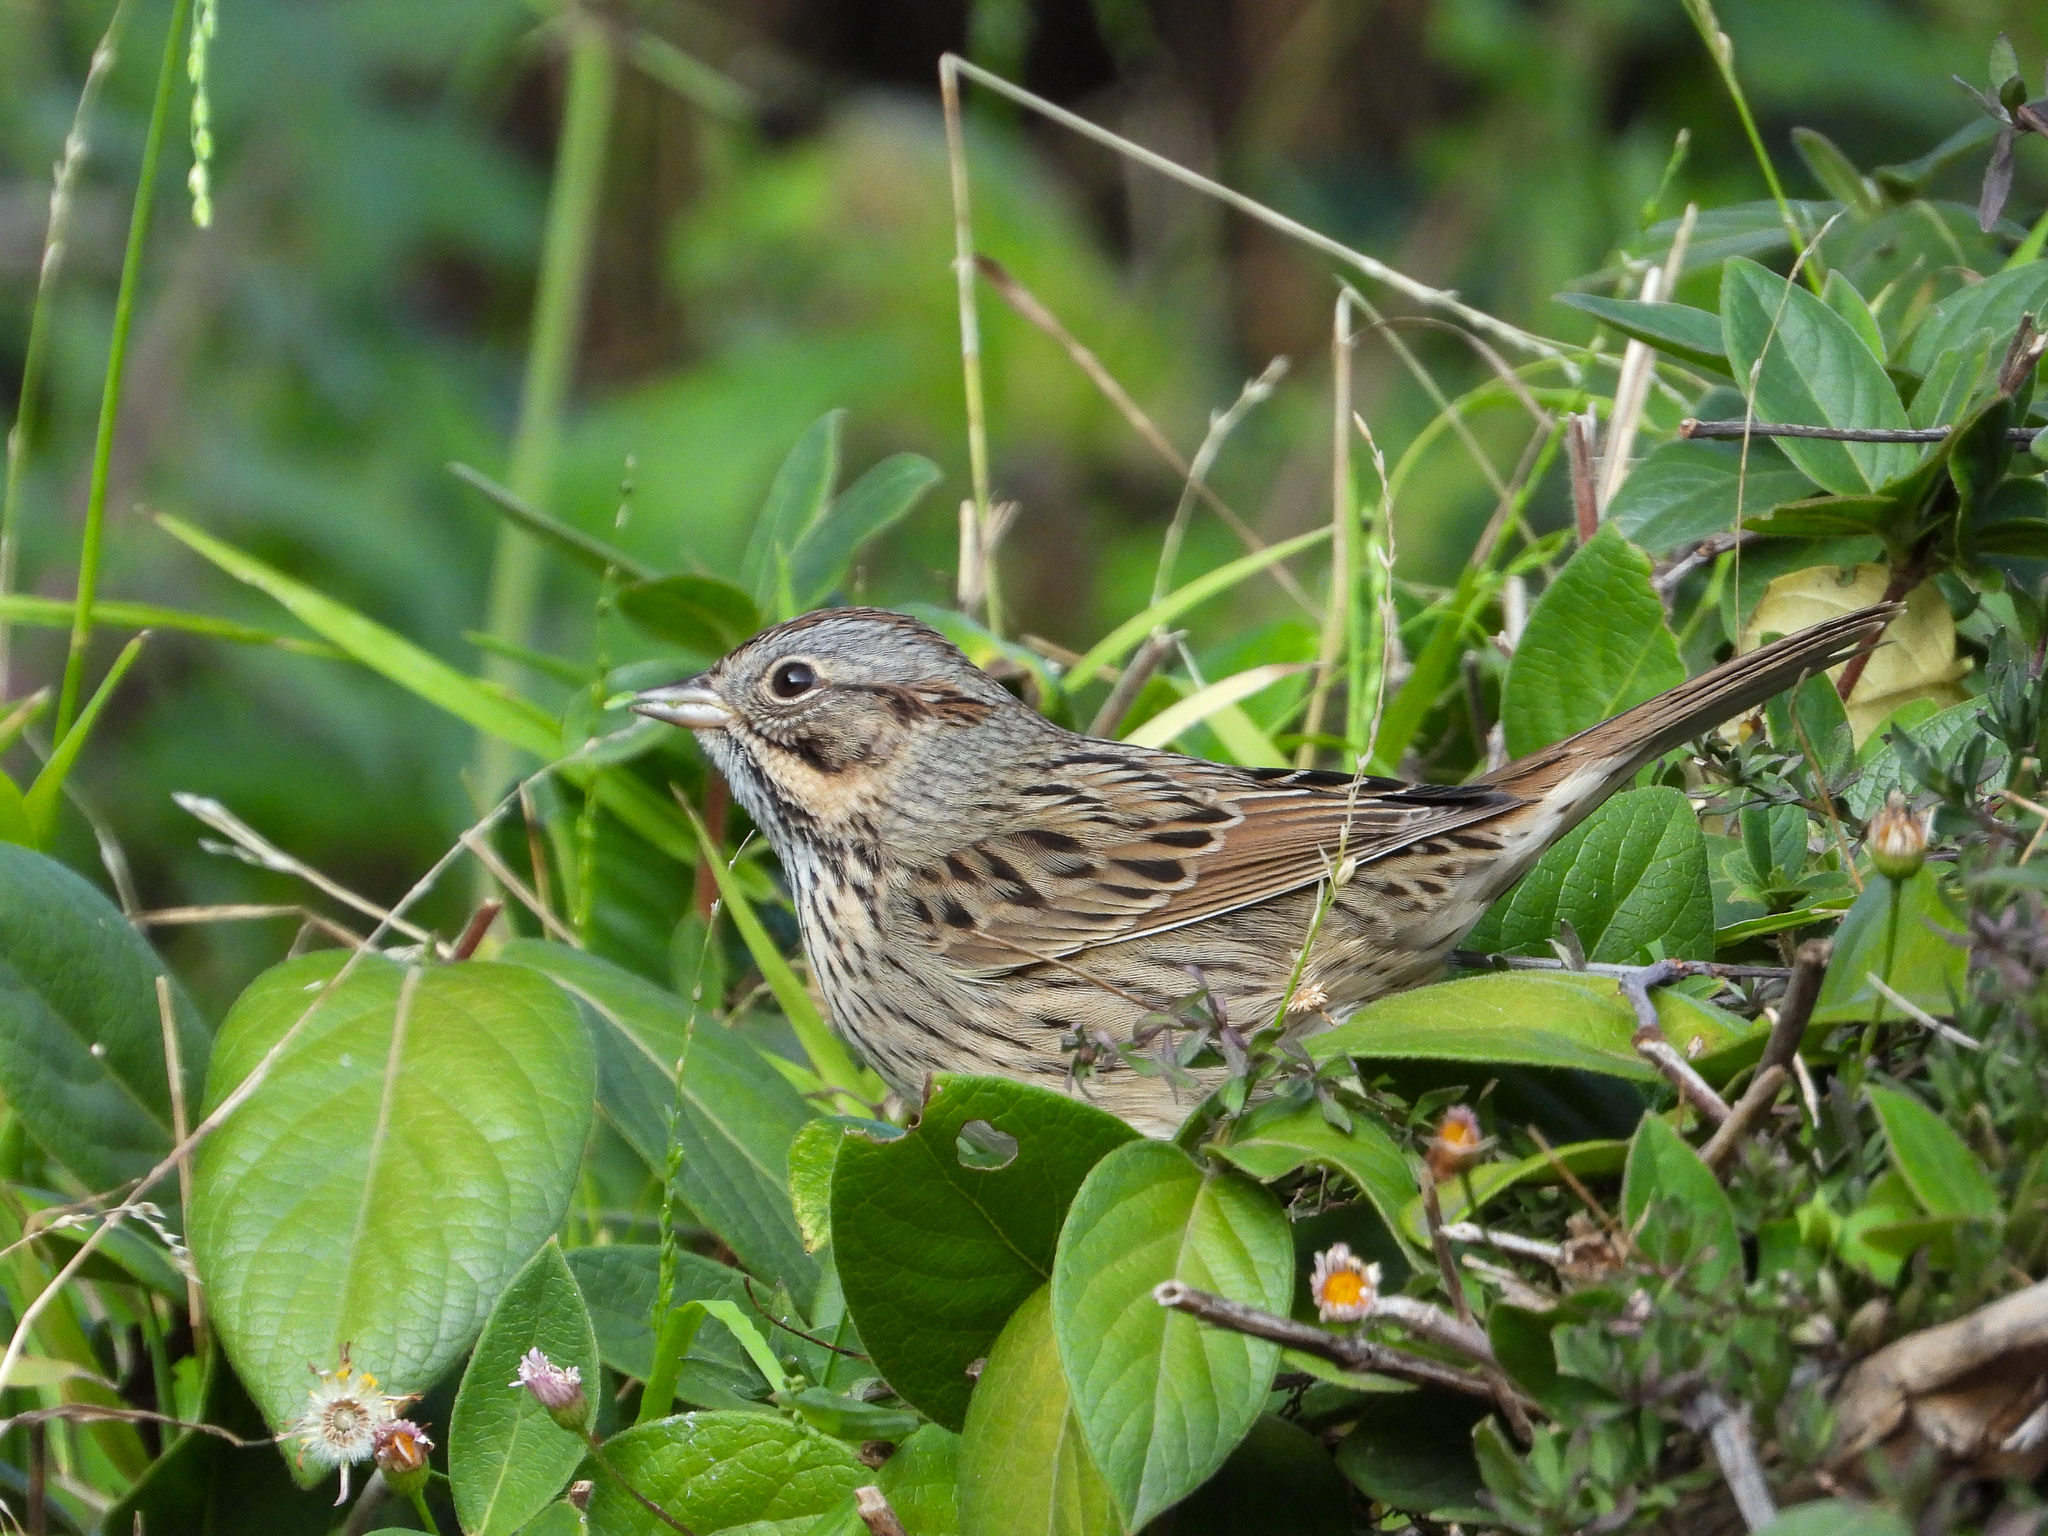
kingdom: Animalia
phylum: Chordata
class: Aves
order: Passeriformes
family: Passerellidae
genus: Melospiza
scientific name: Melospiza lincolnii
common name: Lincoln's sparrow
